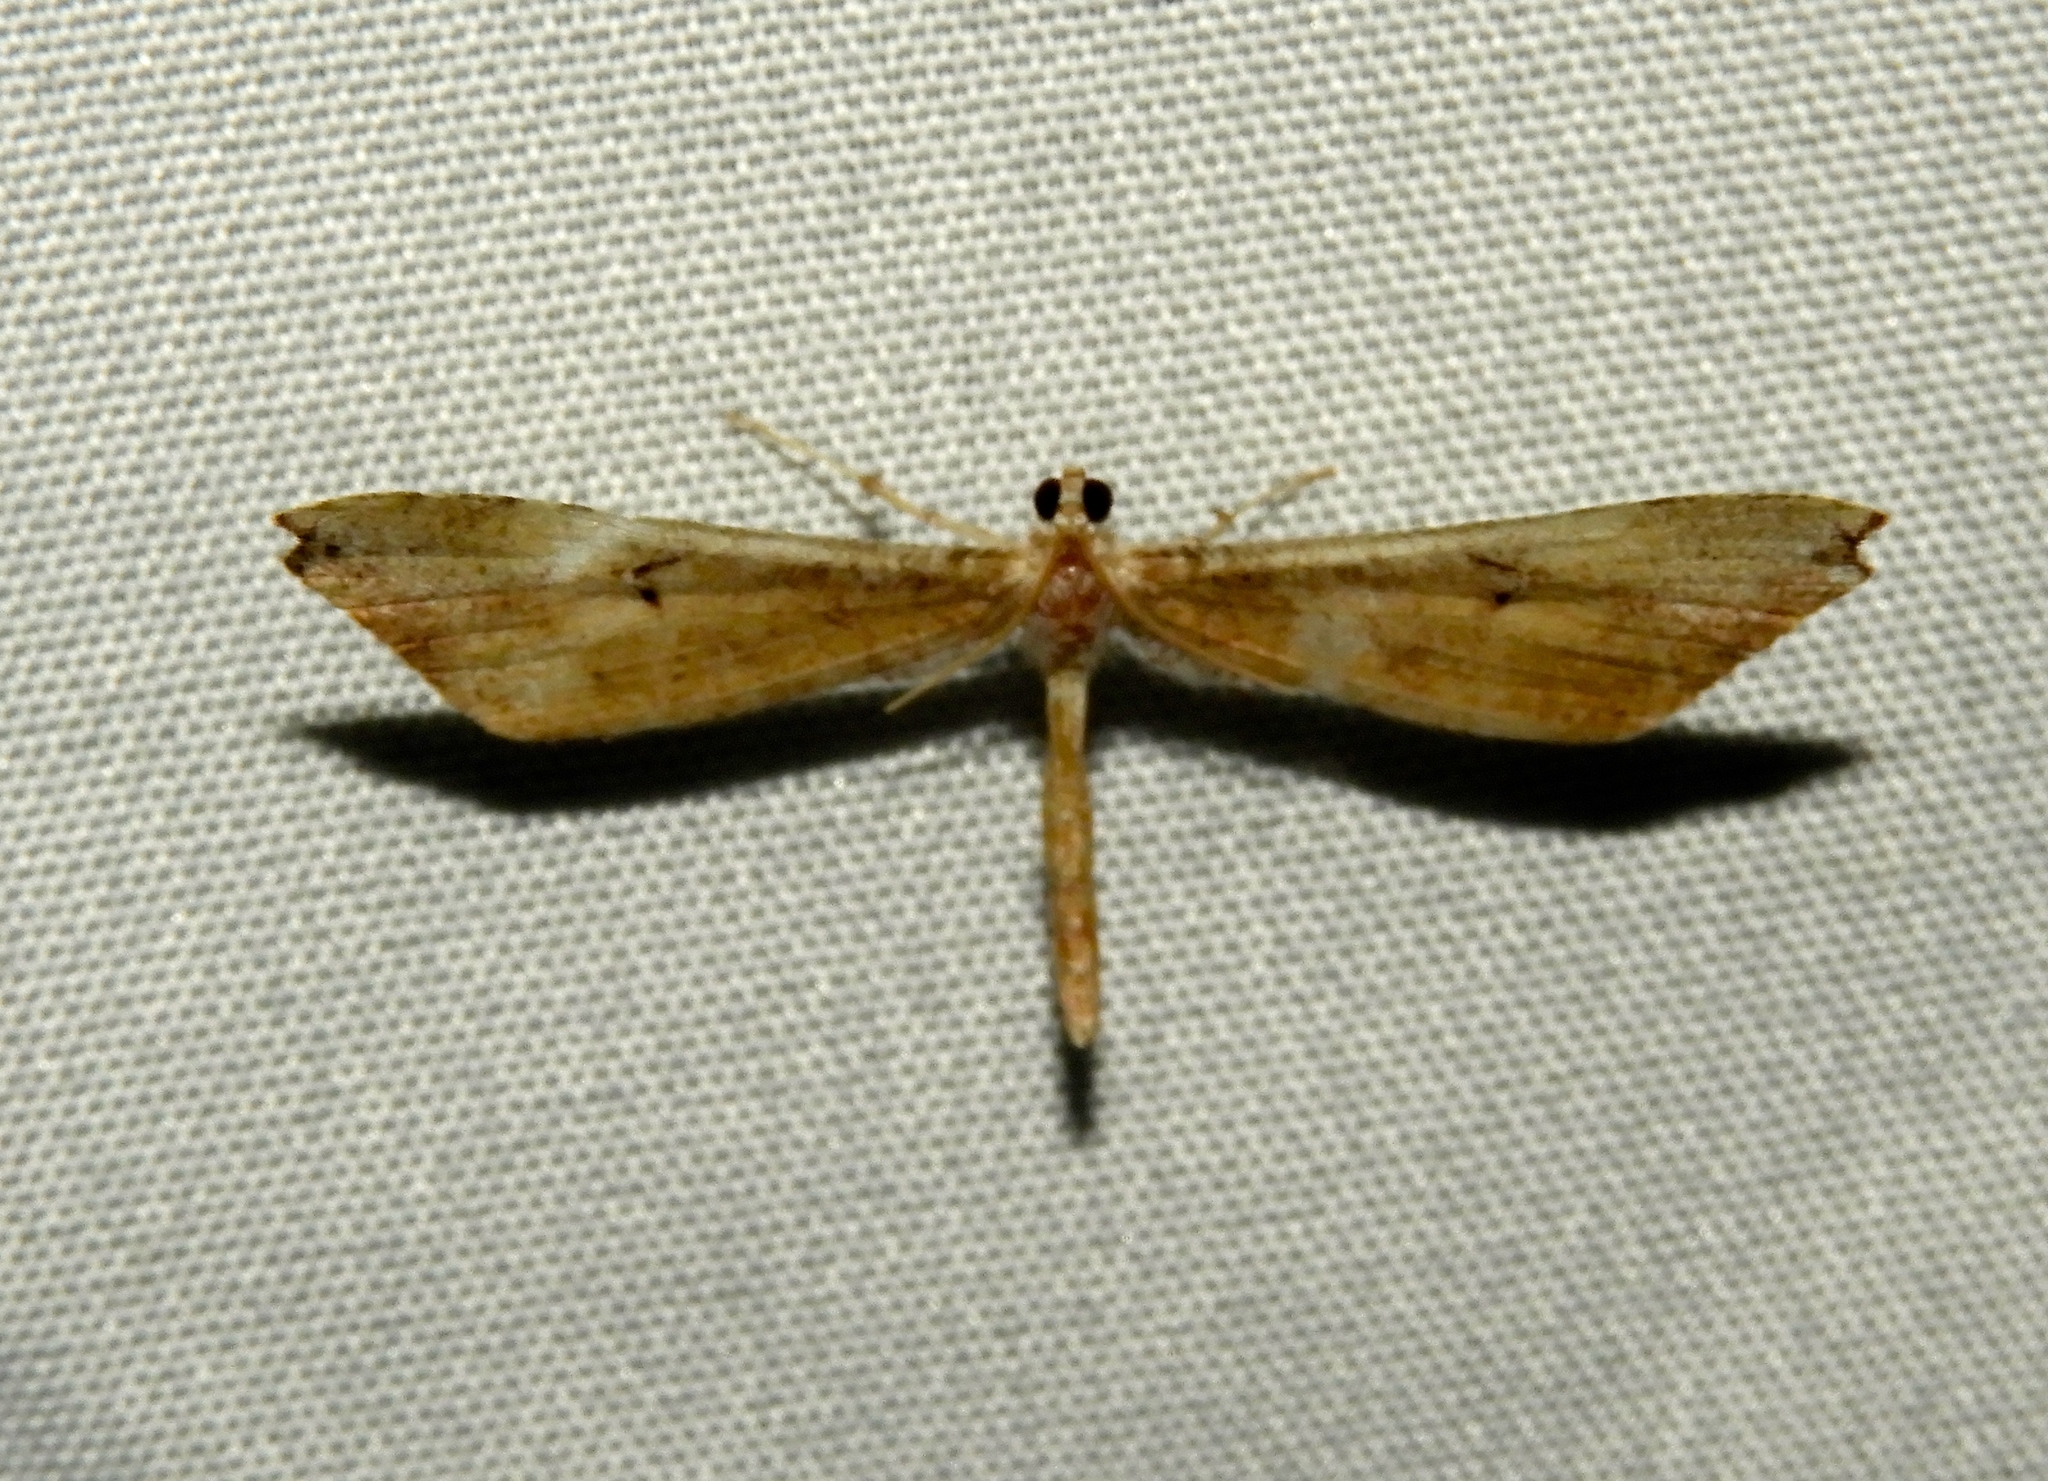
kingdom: Animalia
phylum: Arthropoda
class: Insecta
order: Lepidoptera
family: Hedylidae
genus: Macrosoma
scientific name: Macrosoma
